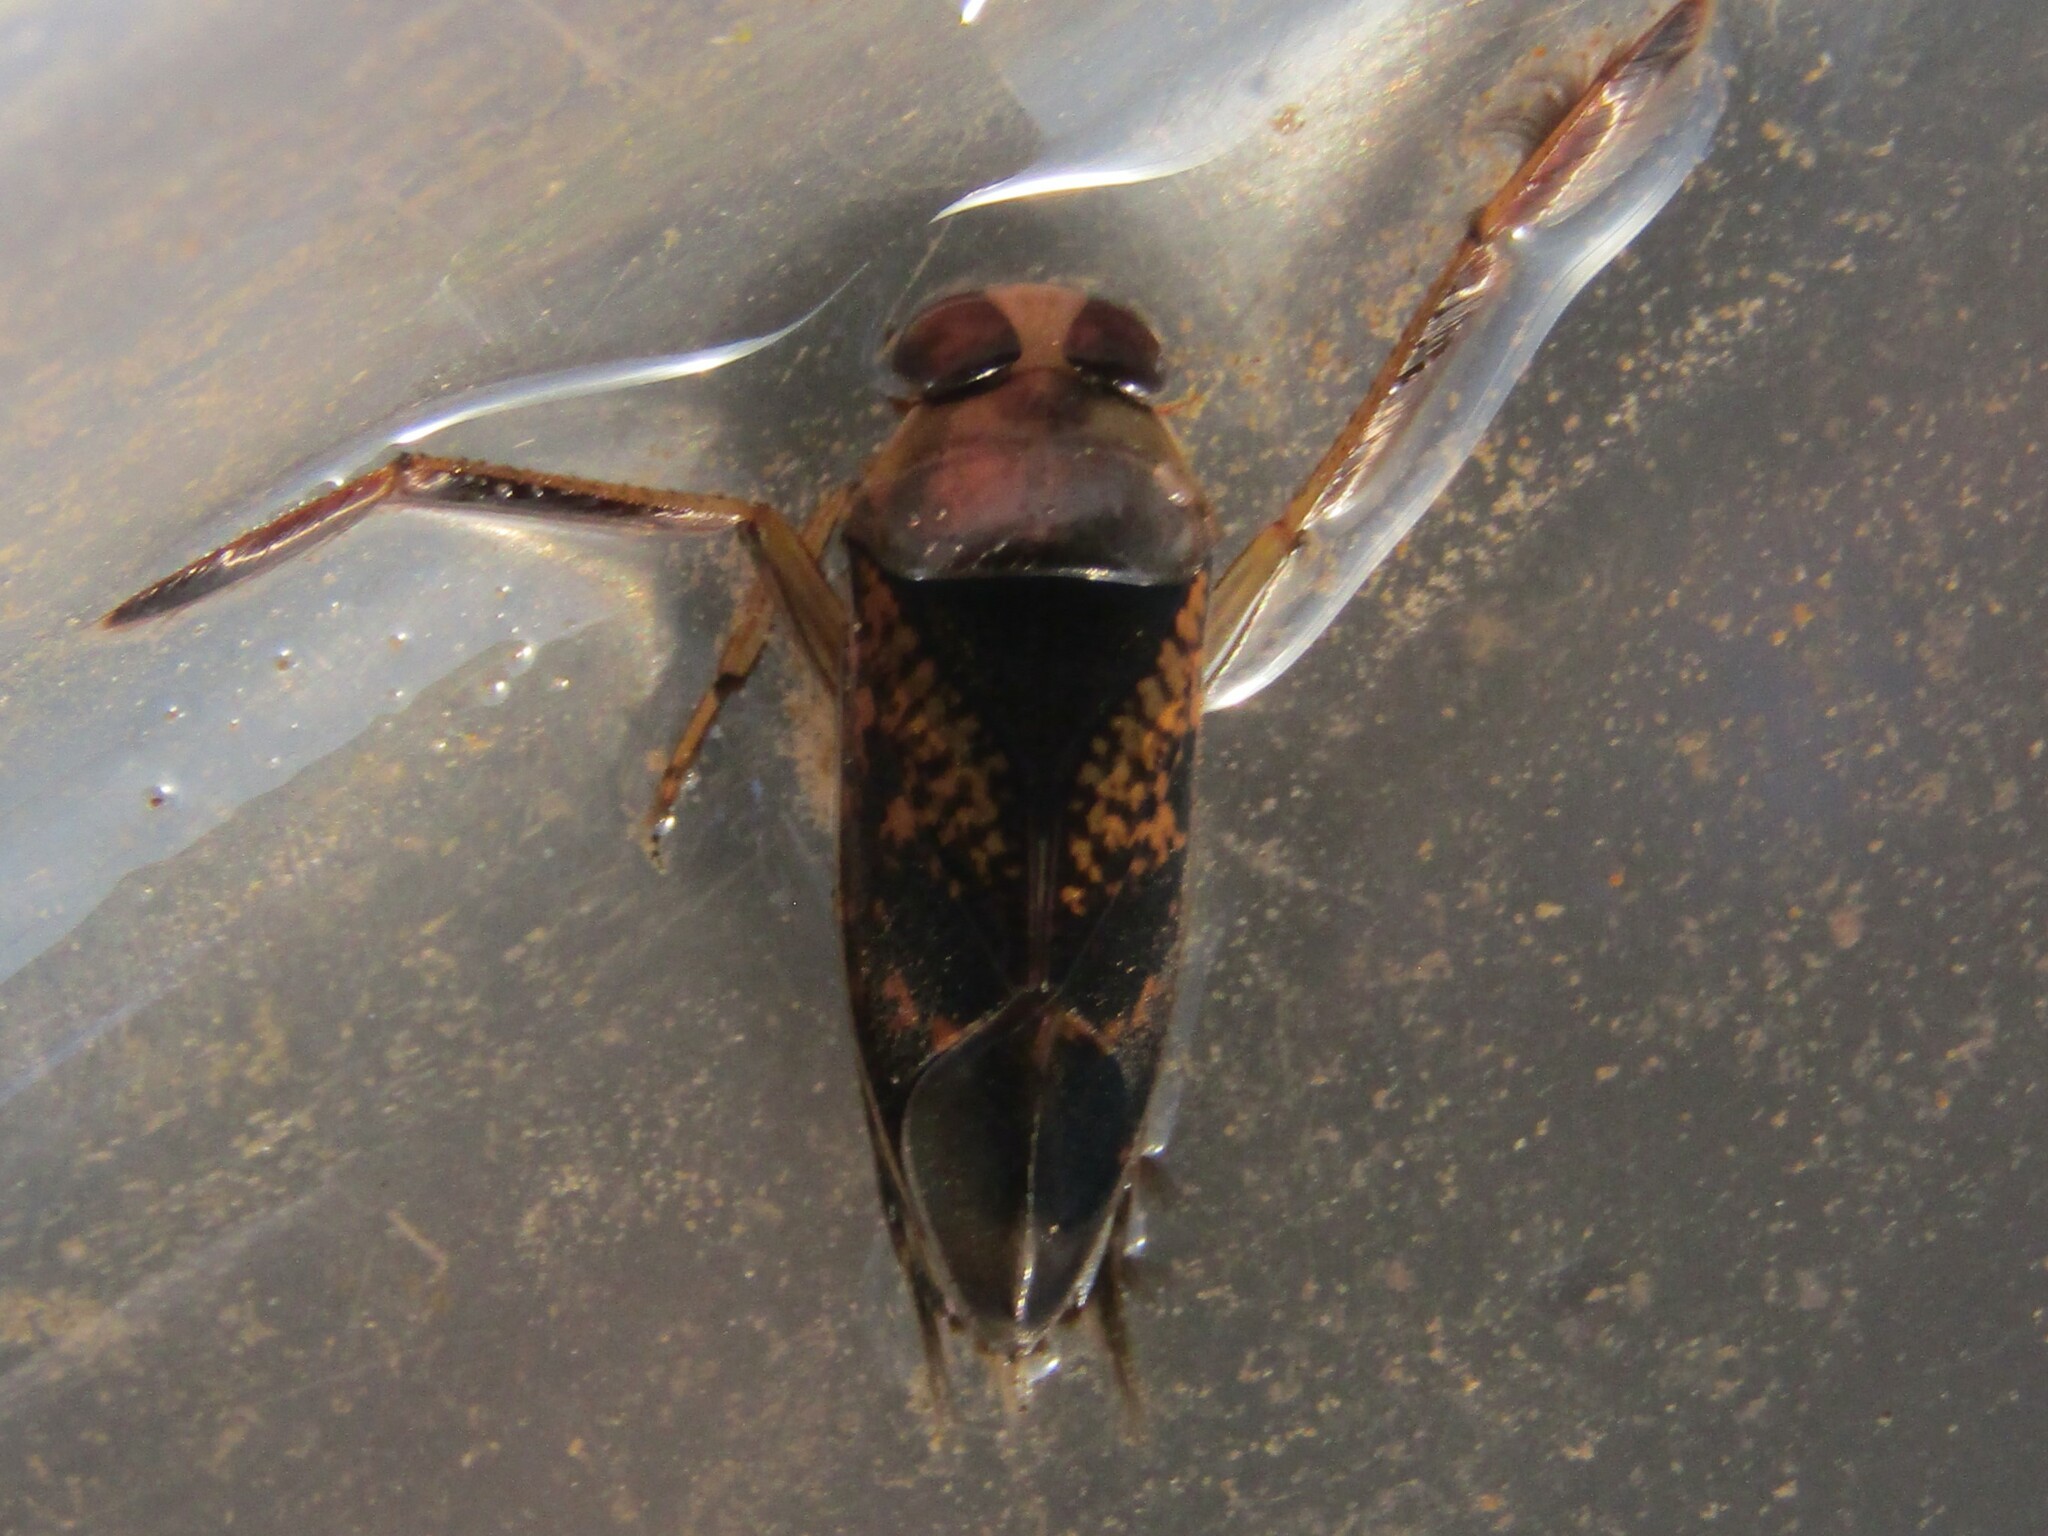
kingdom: Animalia
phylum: Arthropoda
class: Insecta
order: Hemiptera
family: Notonectidae
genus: Notonecta
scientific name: Notonecta irrorata
